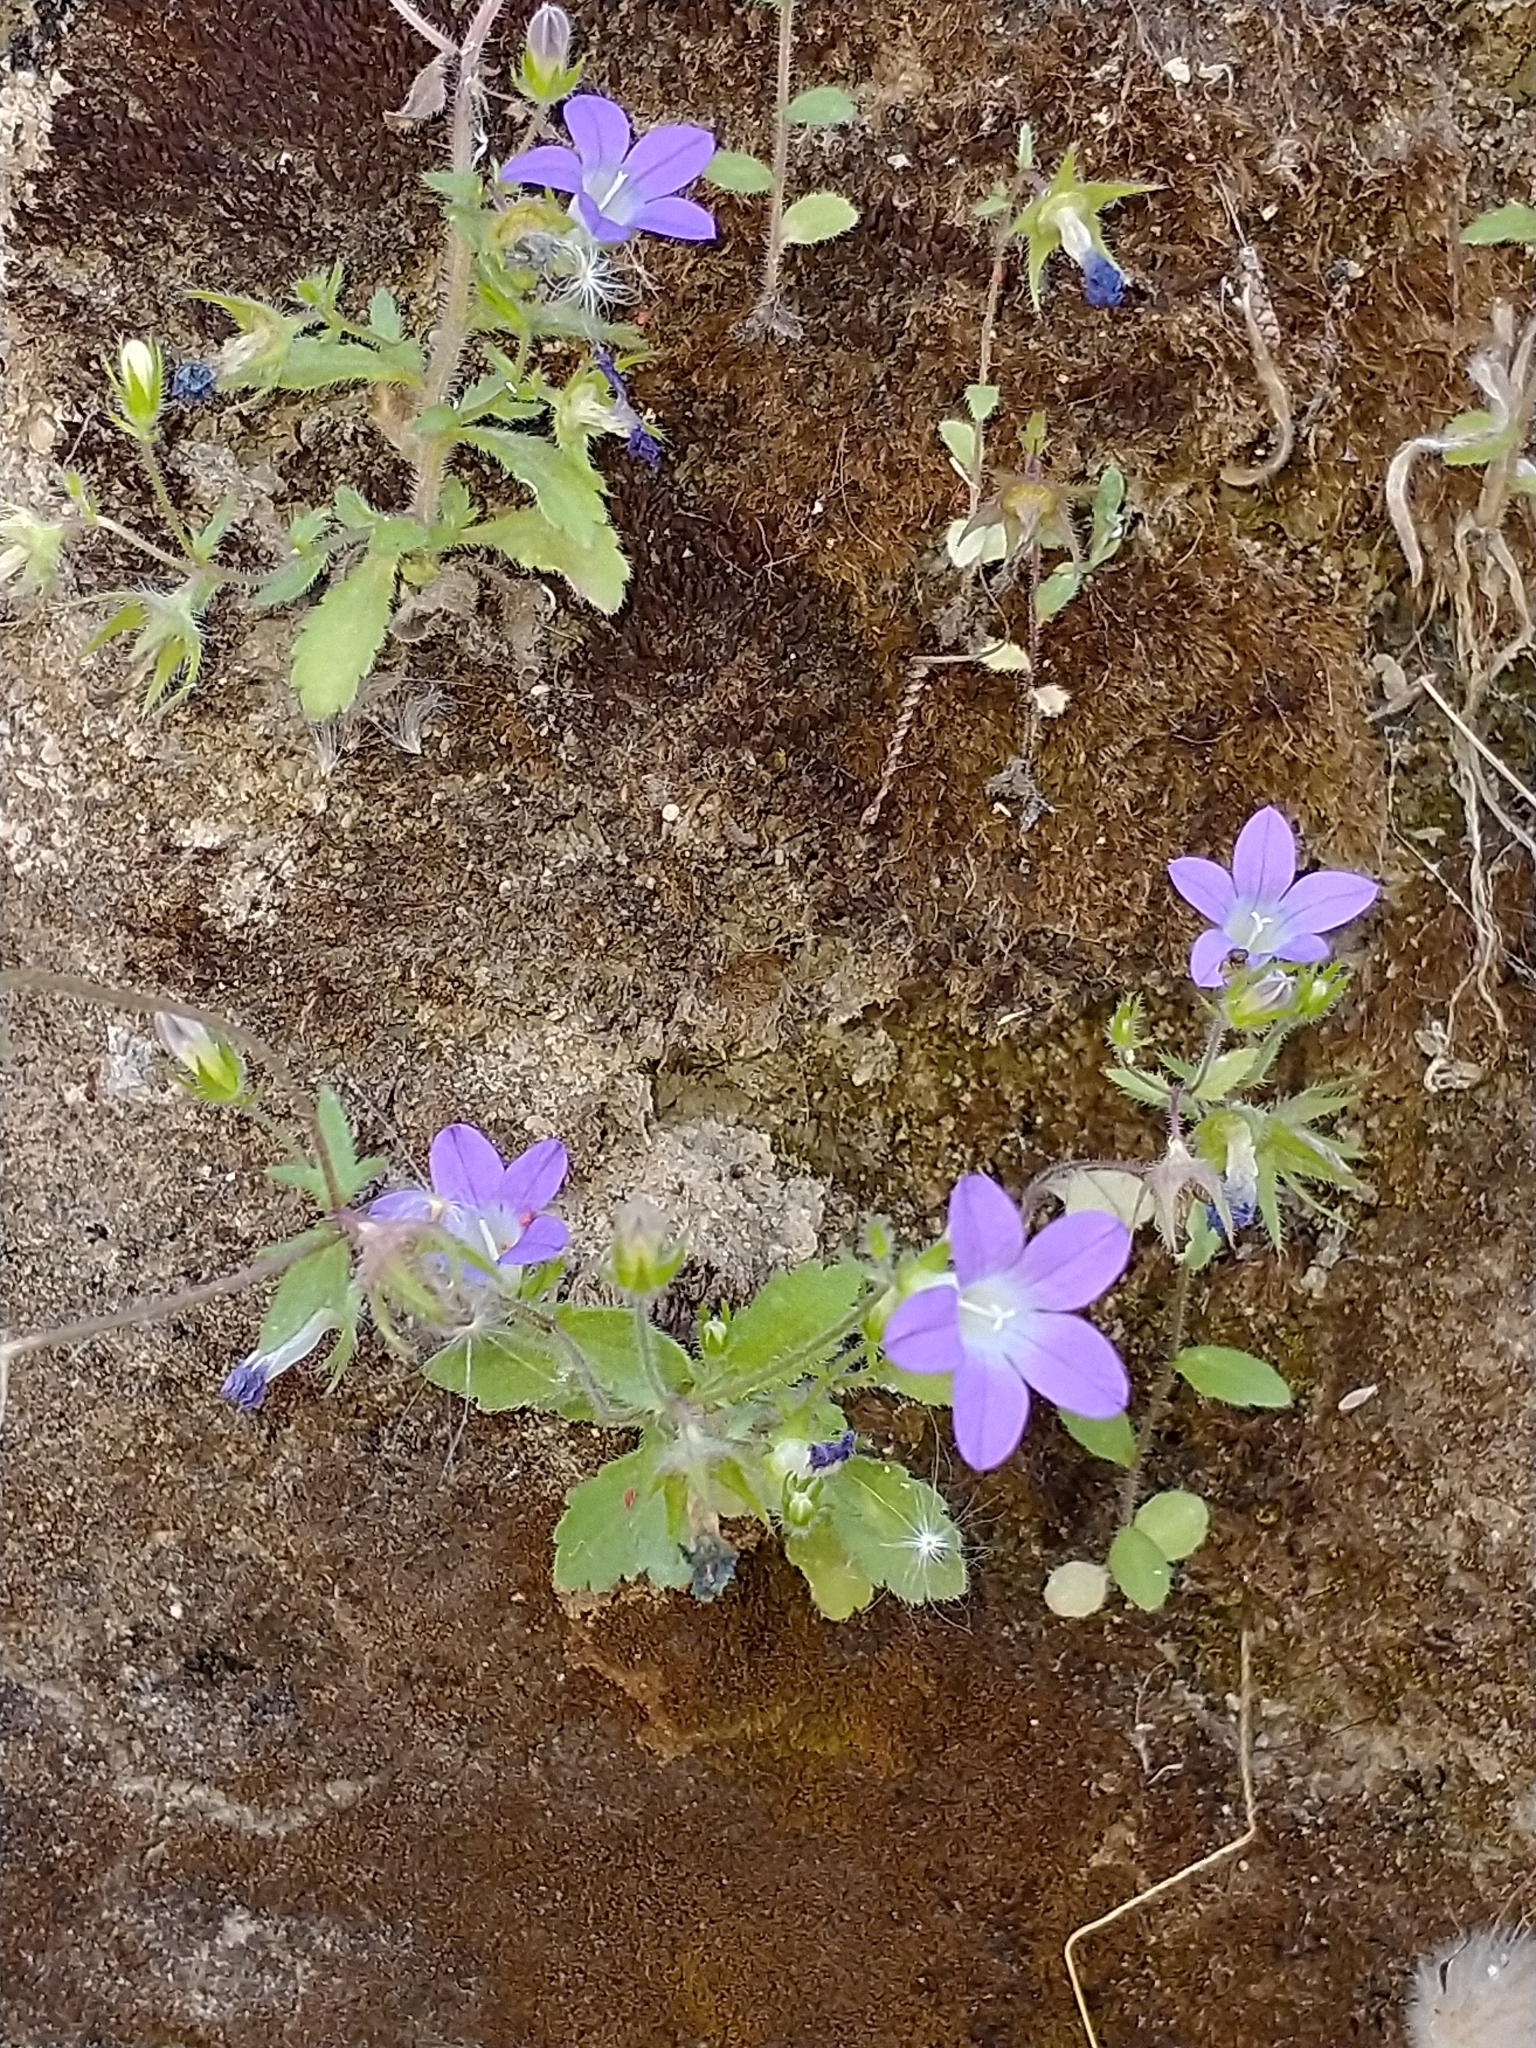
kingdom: Plantae
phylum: Tracheophyta
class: Magnoliopsida
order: Asterales
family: Campanulaceae
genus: Campanula
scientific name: Campanula ramosissima
